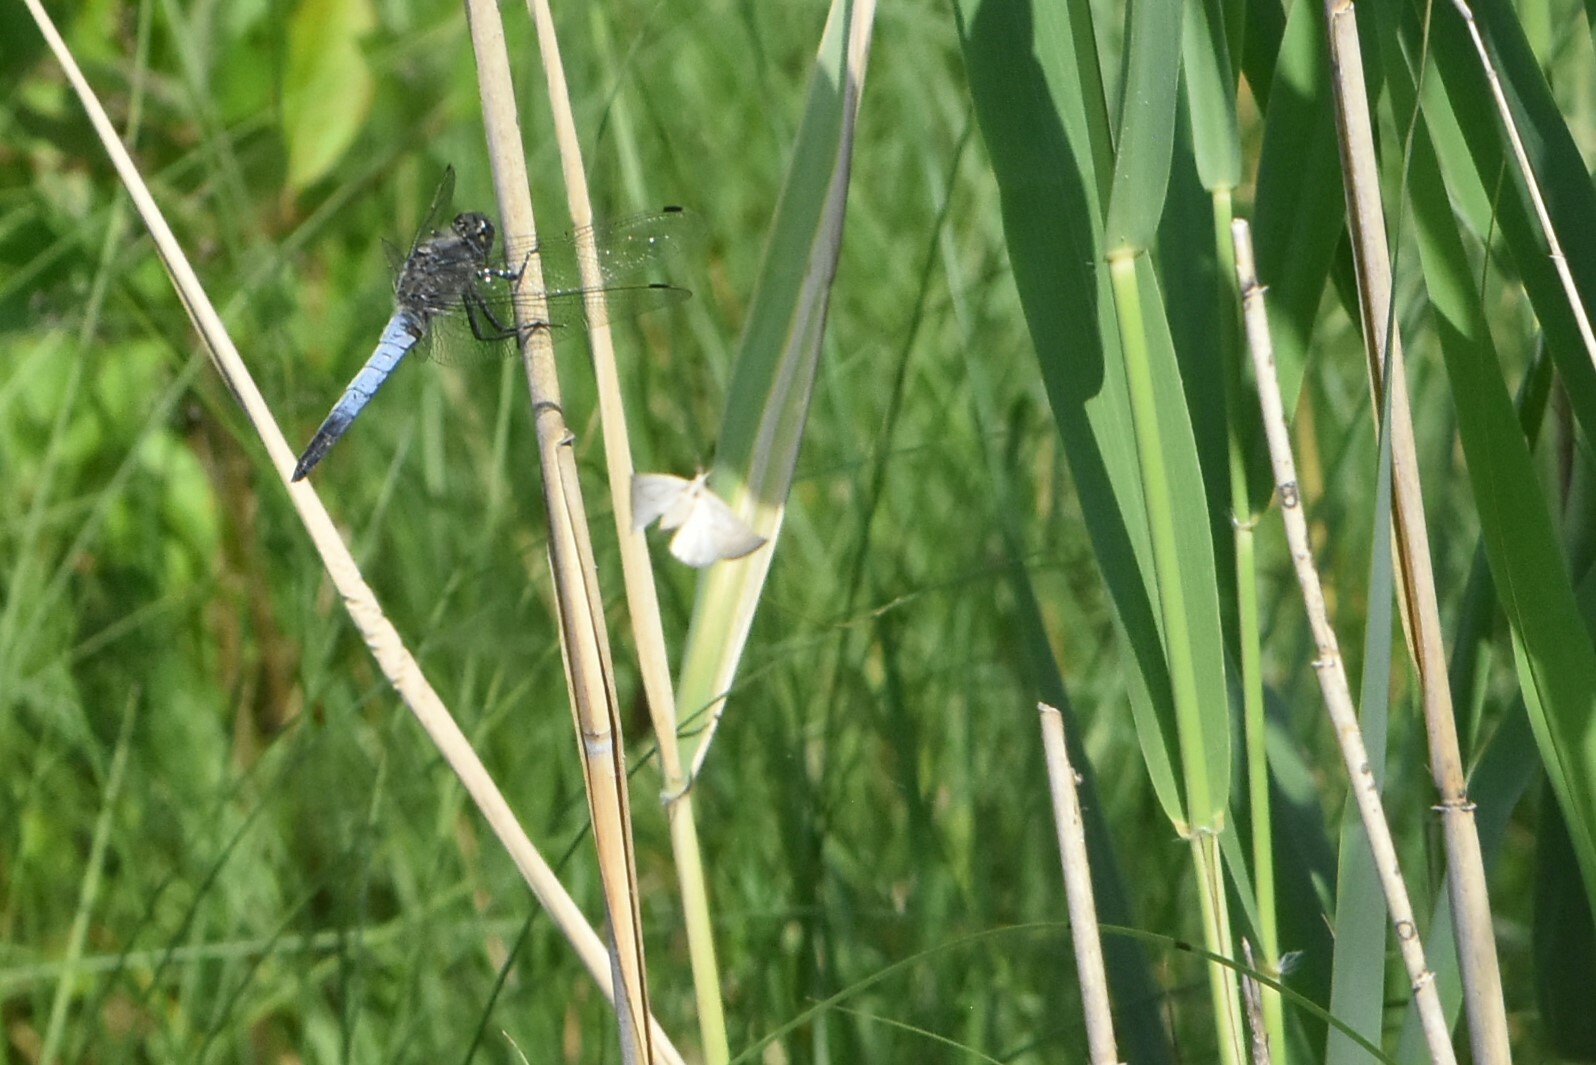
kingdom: Animalia
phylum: Arthropoda
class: Insecta
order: Odonata
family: Libellulidae
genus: Orthetrum
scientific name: Orthetrum cancellatum
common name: Black-tailed skimmer
